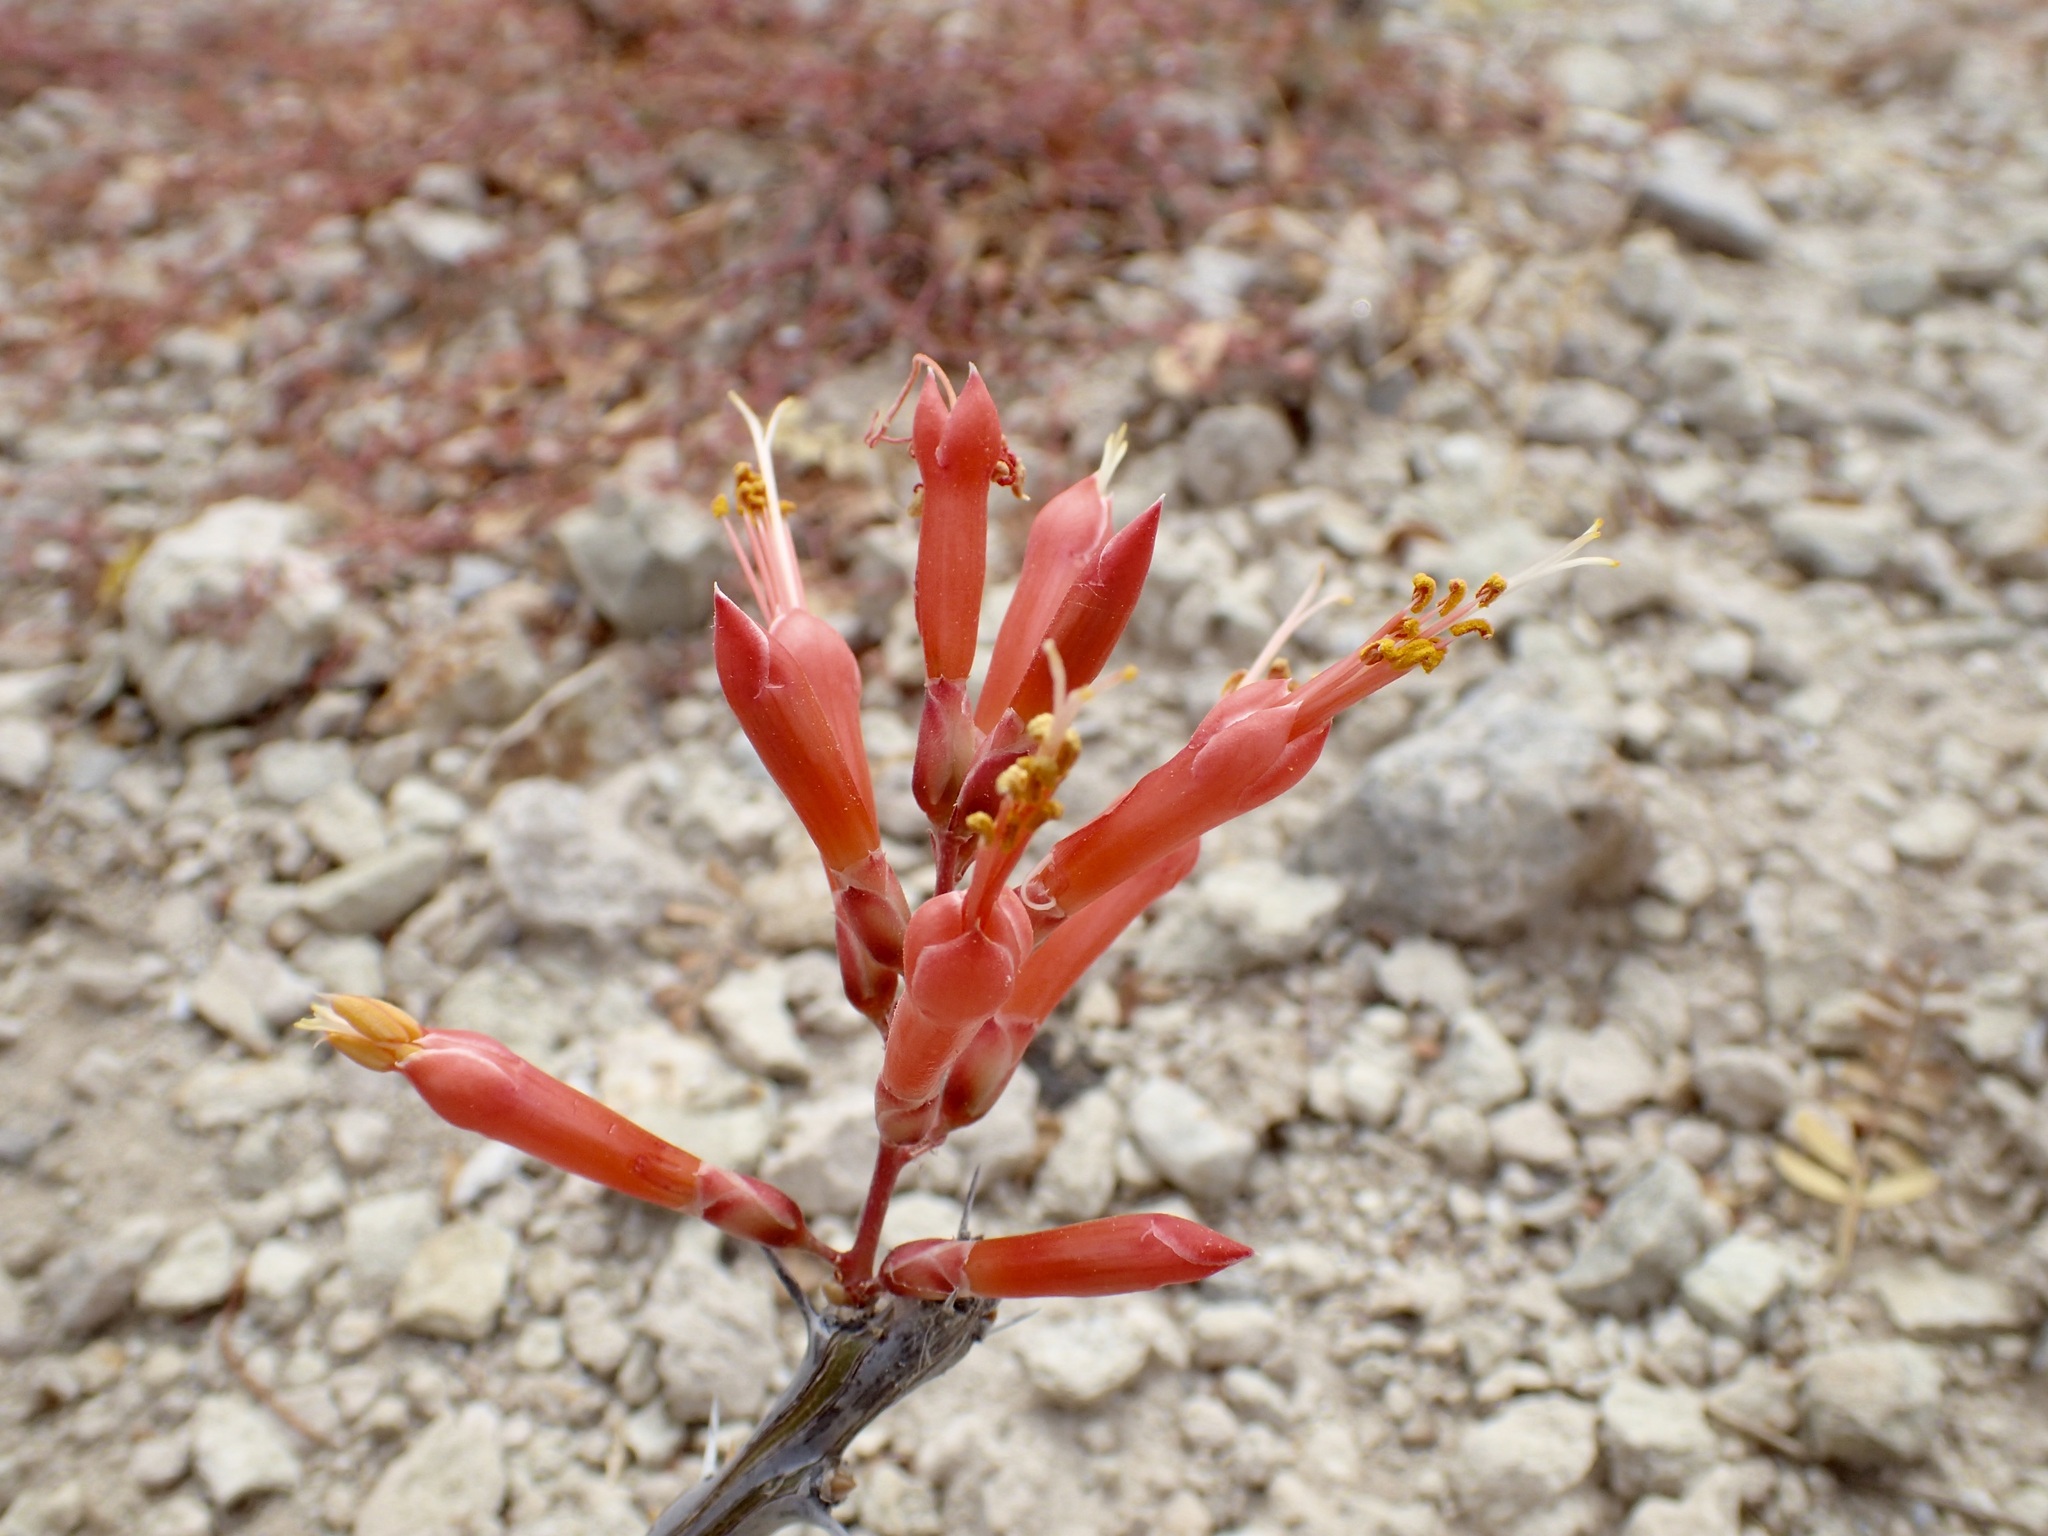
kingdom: Plantae
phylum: Tracheophyta
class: Magnoliopsida
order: Ericales
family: Fouquieriaceae
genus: Fouquieria
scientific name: Fouquieria diguetii
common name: Adam's tree
